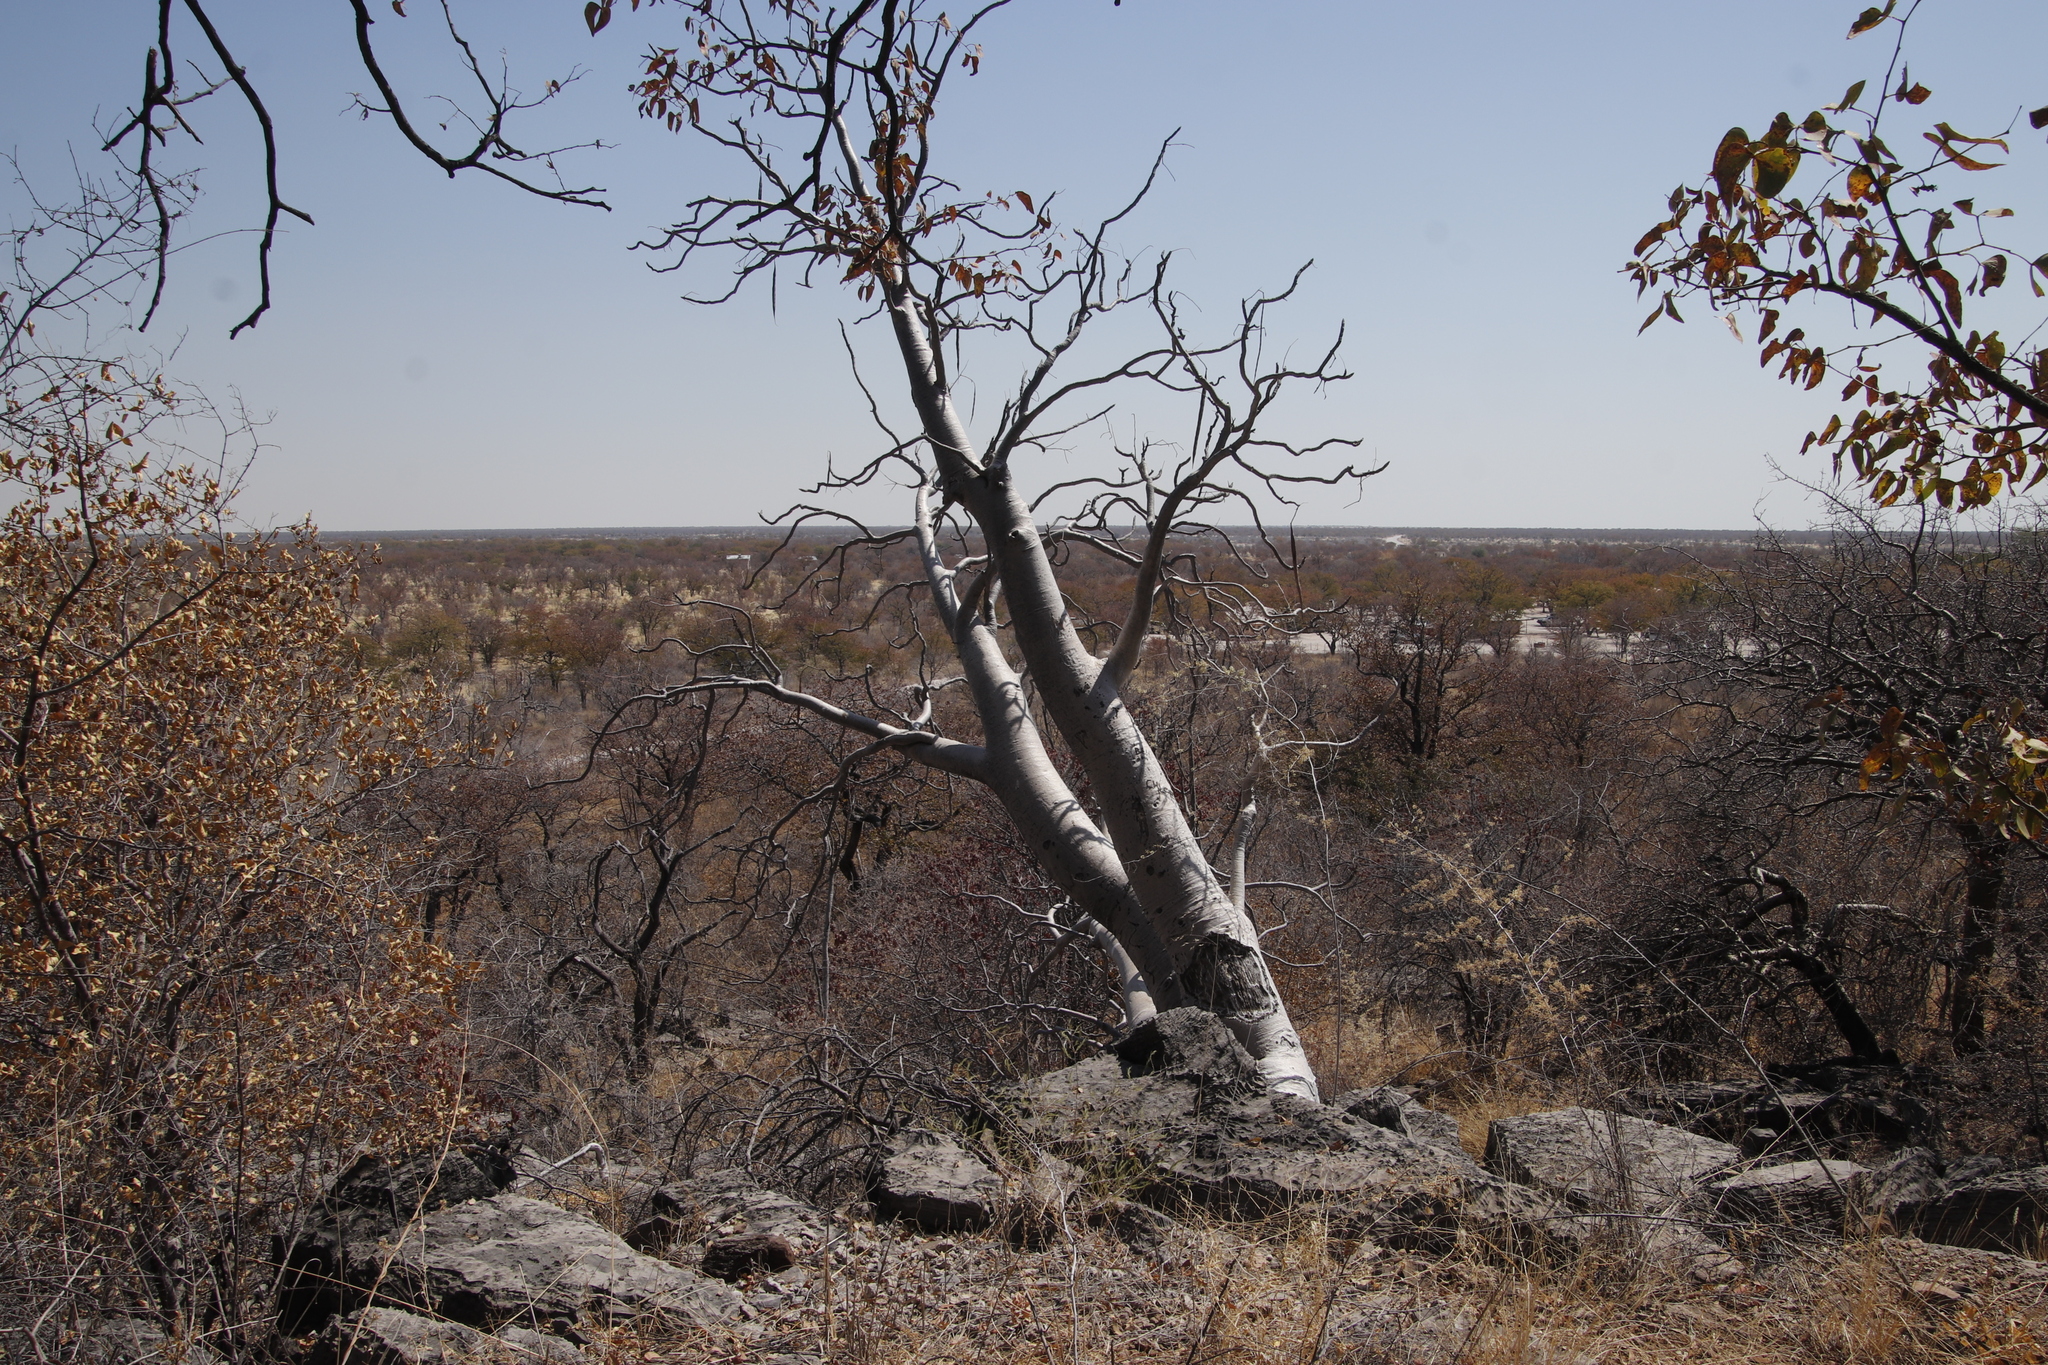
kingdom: Plantae
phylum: Tracheophyta
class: Magnoliopsida
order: Brassicales
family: Moringaceae
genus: Moringa
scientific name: Moringa ovalifolia
